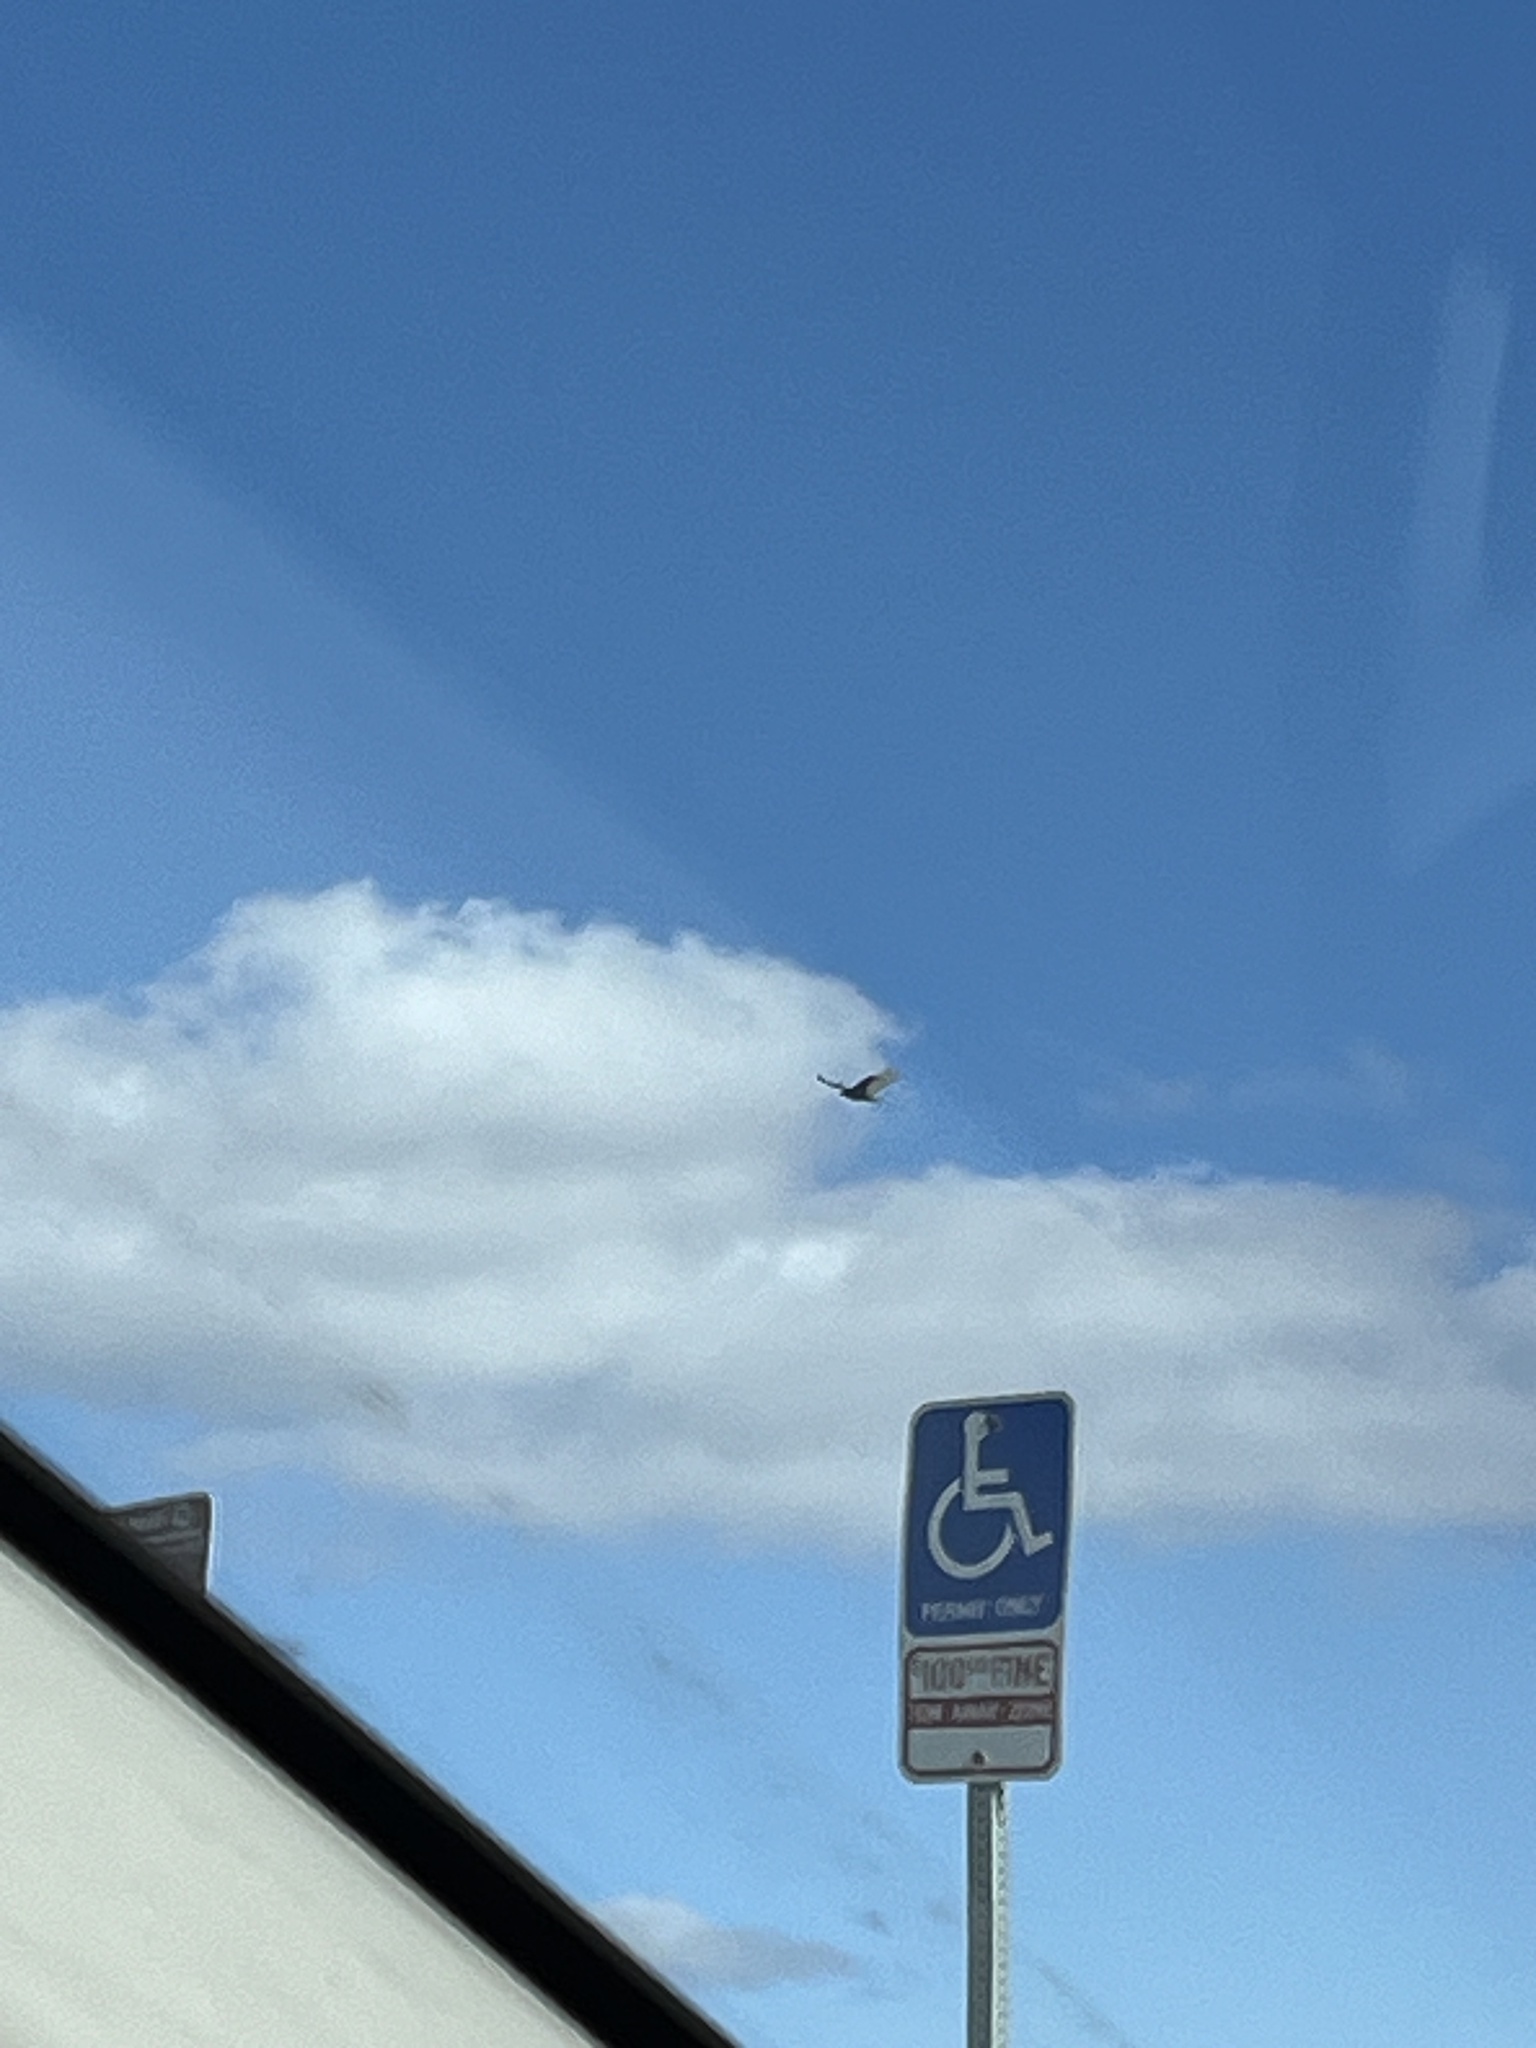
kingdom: Animalia
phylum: Chordata
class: Aves
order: Accipitriformes
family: Cathartidae
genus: Cathartes
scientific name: Cathartes aura
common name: Turkey vulture
